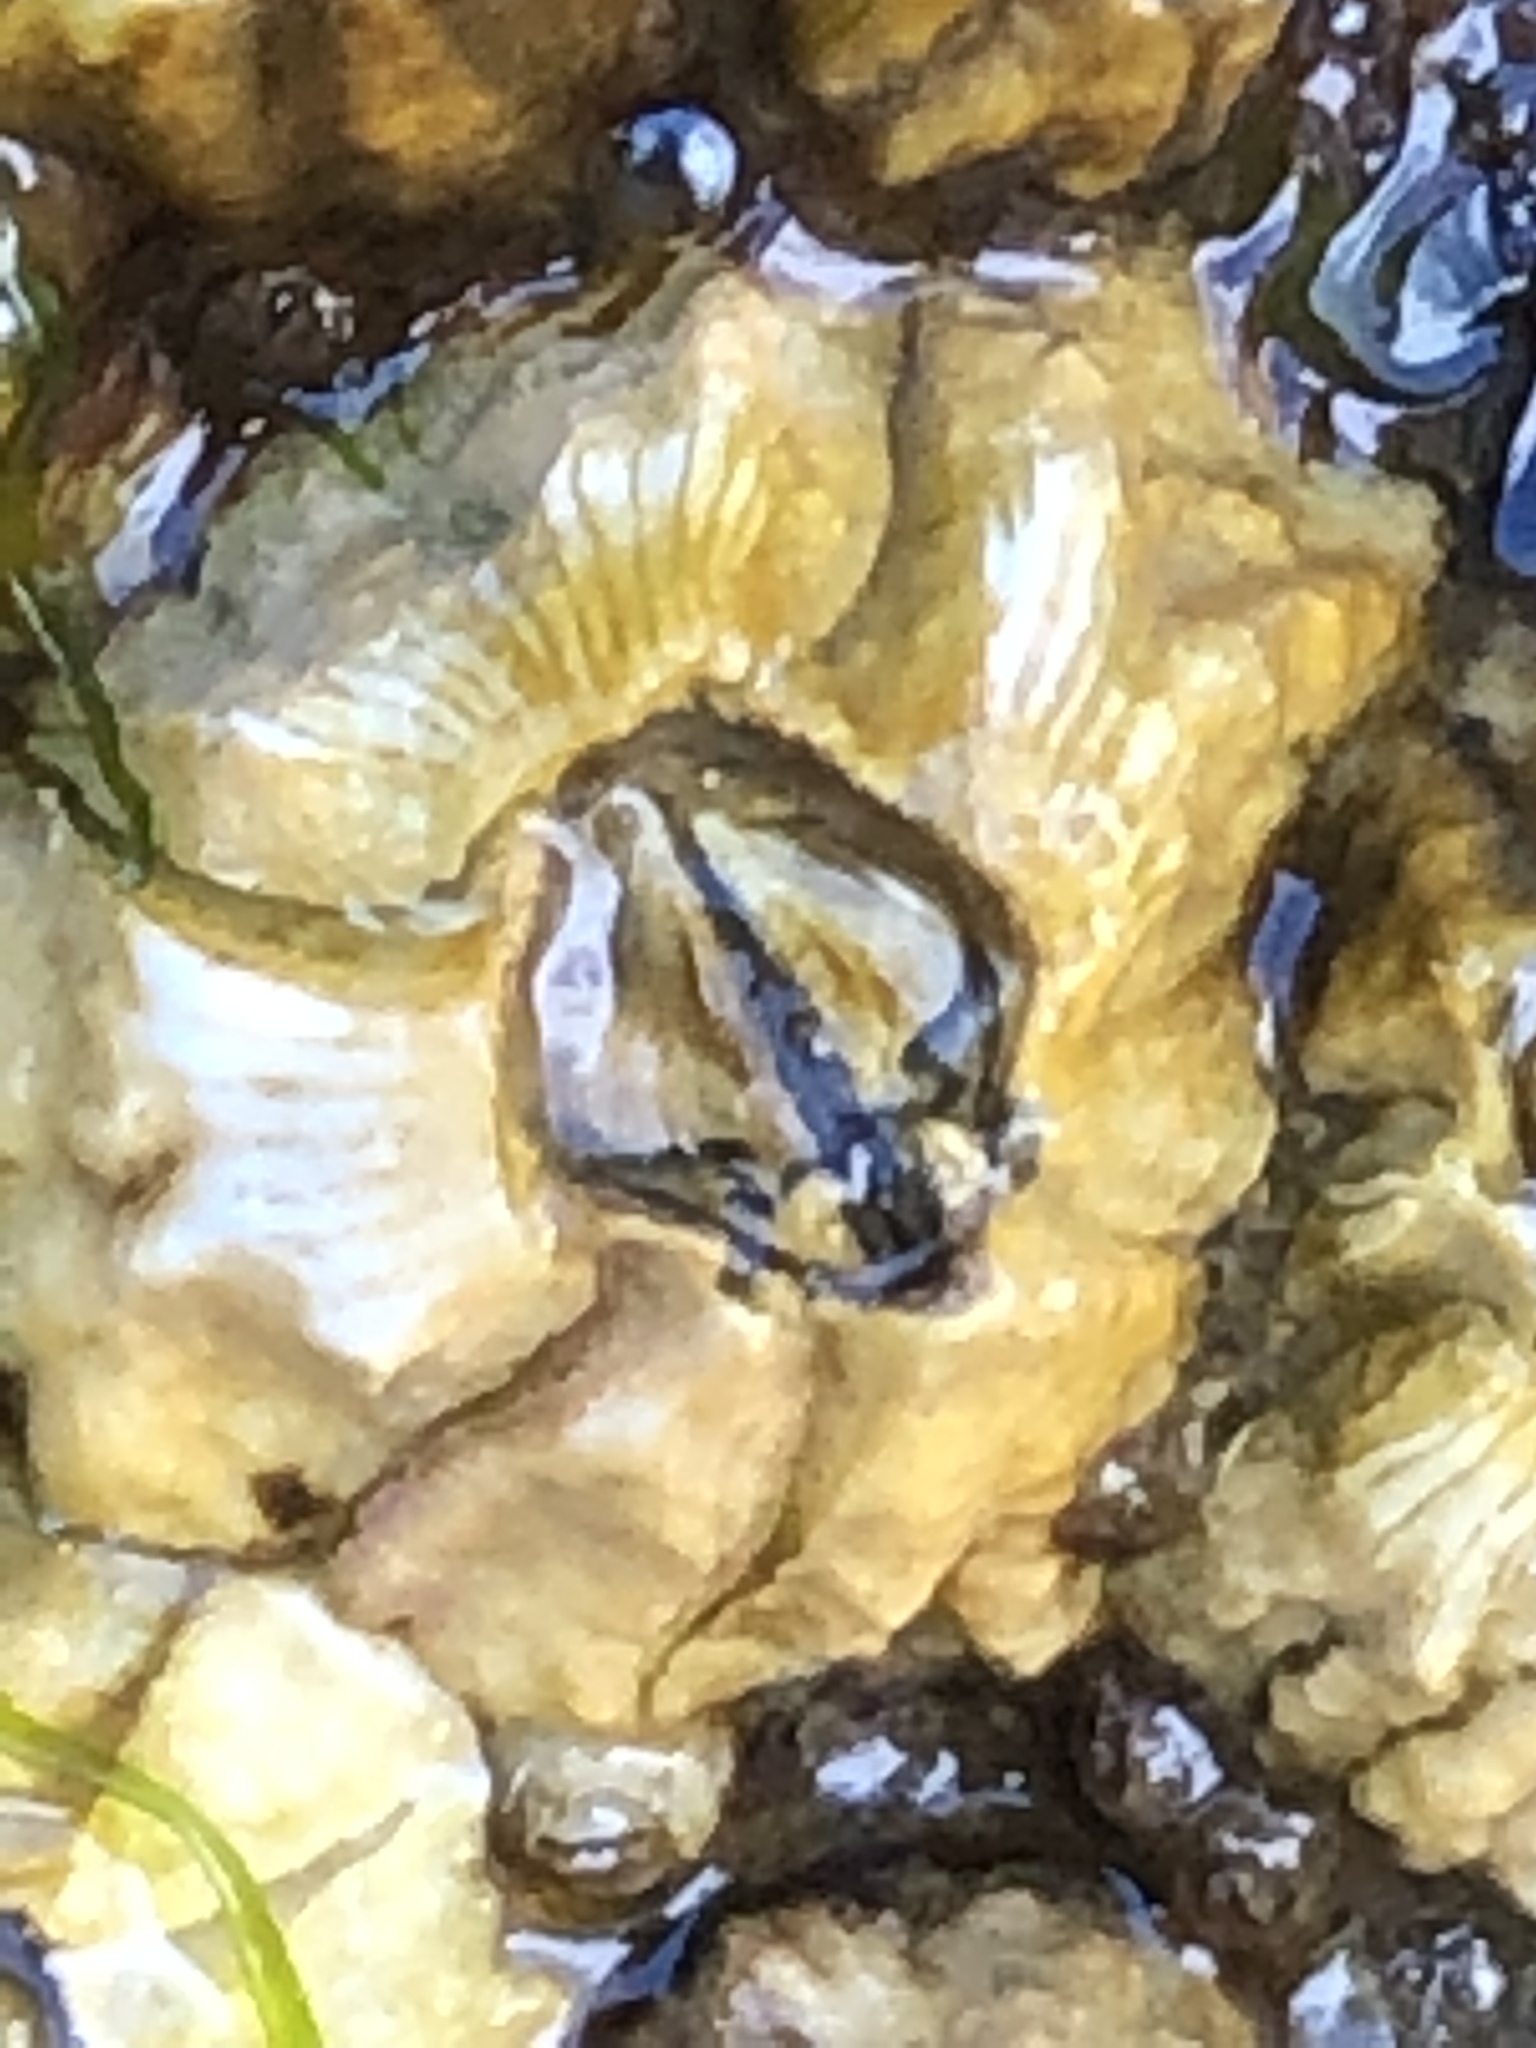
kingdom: Animalia
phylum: Arthropoda
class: Maxillopoda
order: Sessilia
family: Balanidae
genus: Balanus
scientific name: Balanus glandula
